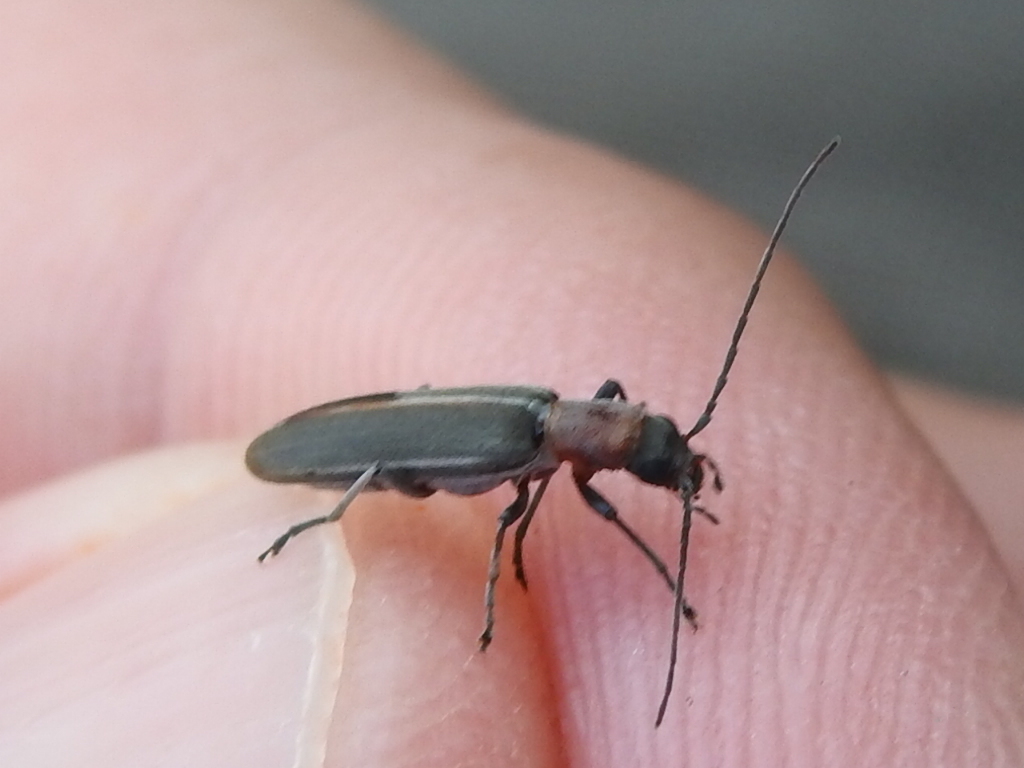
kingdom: Animalia
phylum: Arthropoda
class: Insecta
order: Coleoptera
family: Oedemeridae
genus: Oxacis
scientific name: Oxacis cana
